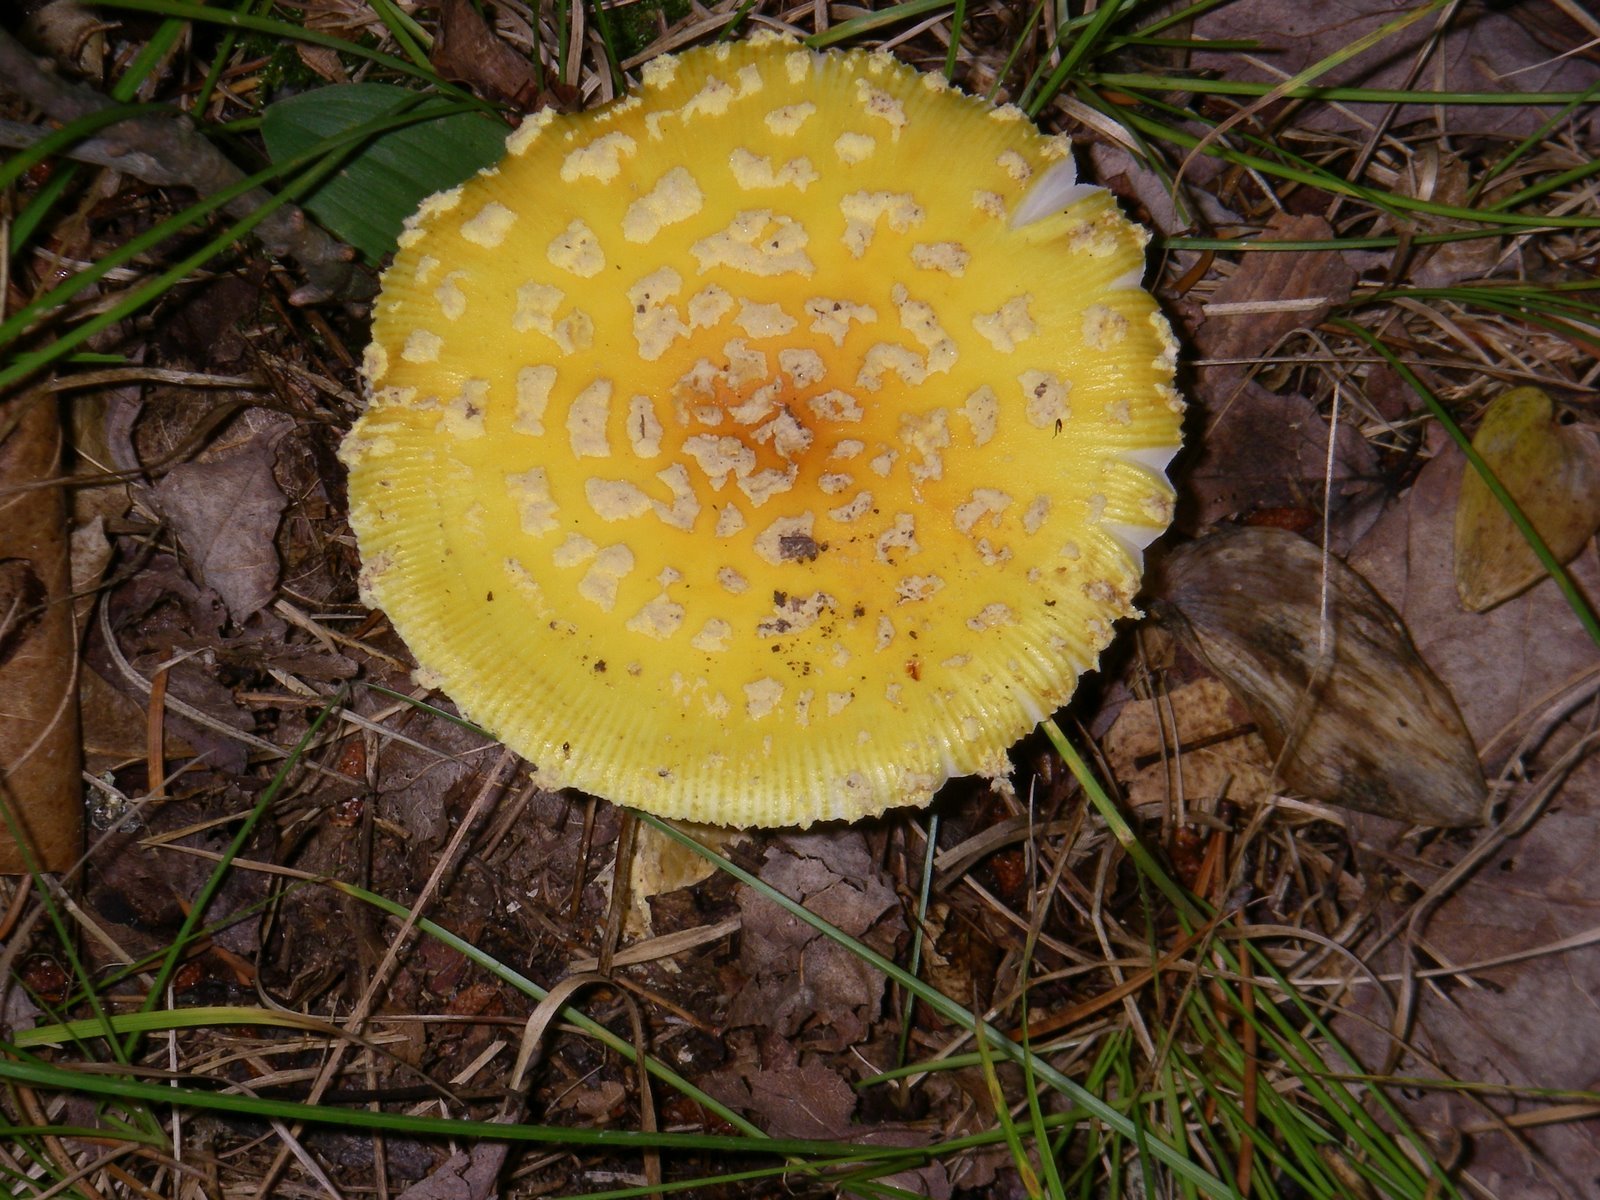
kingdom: Fungi
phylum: Basidiomycota
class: Agaricomycetes
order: Agaricales
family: Amanitaceae
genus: Amanita
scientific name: Amanita muscaria
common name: Fly agaric
